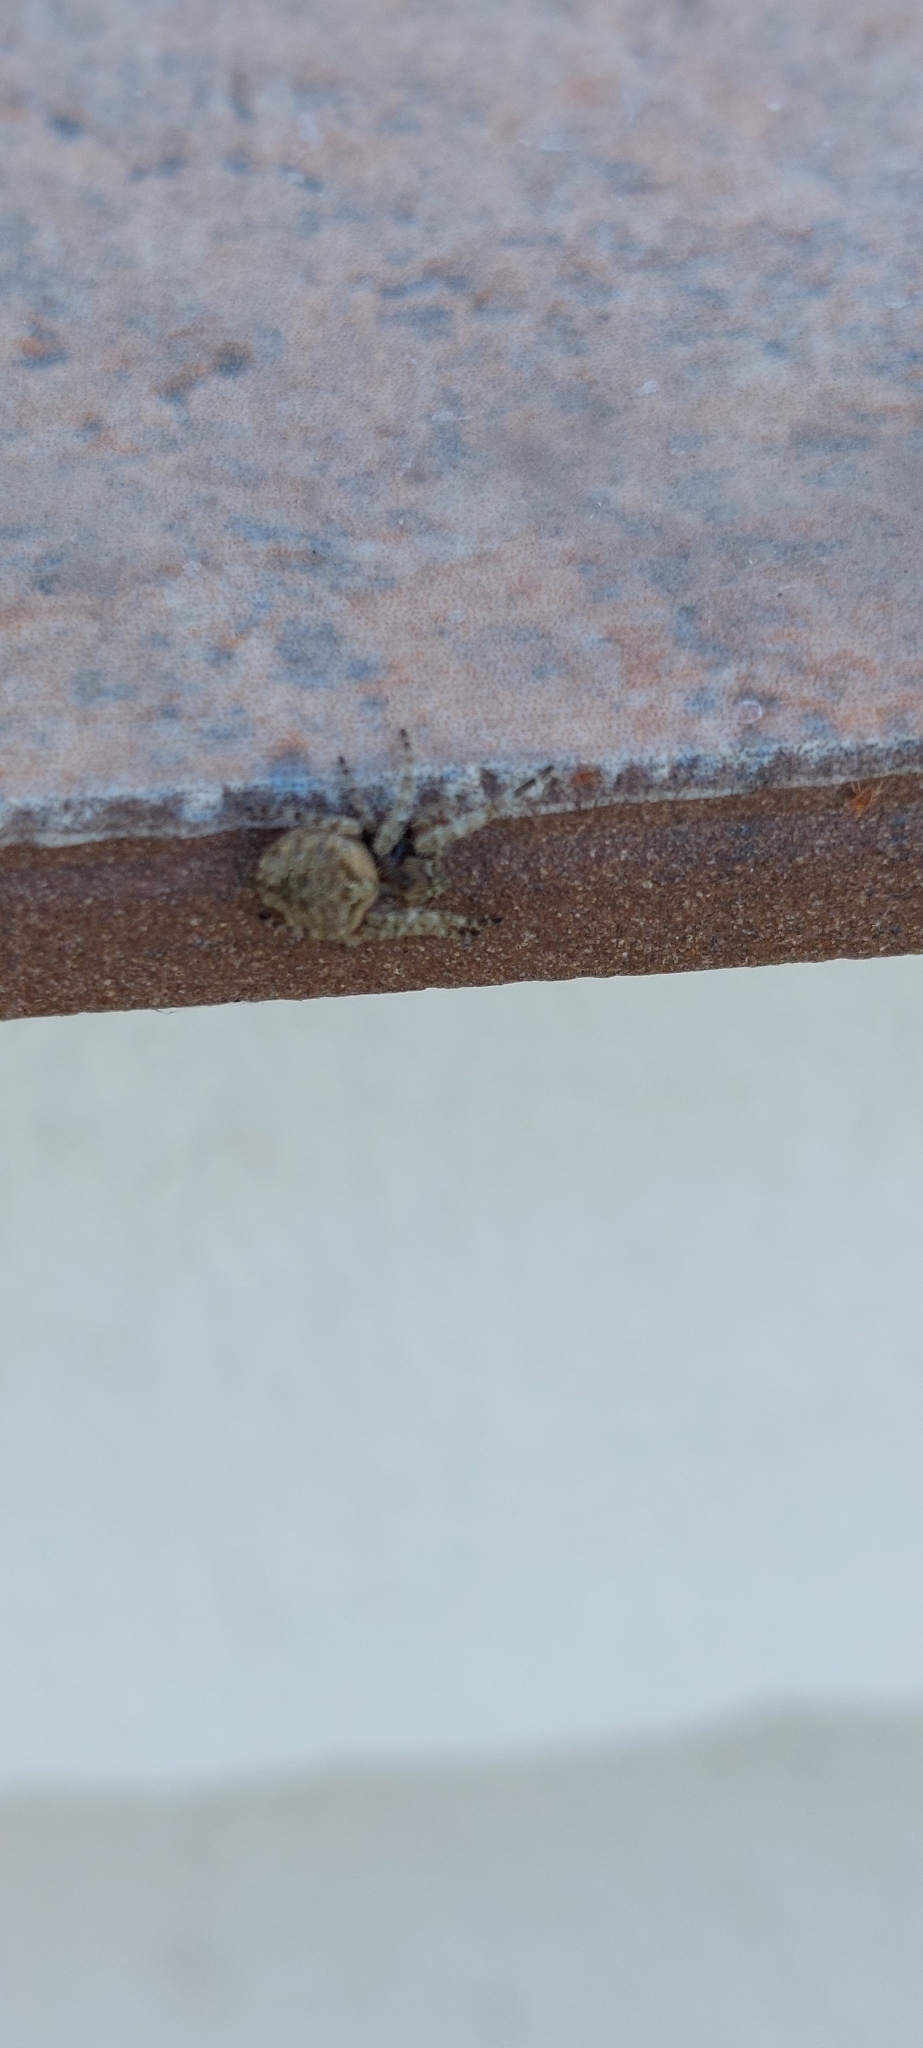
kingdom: Animalia
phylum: Arthropoda
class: Arachnida
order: Araneae
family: Araneidae
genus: Parawixia
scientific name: Parawixia audax
